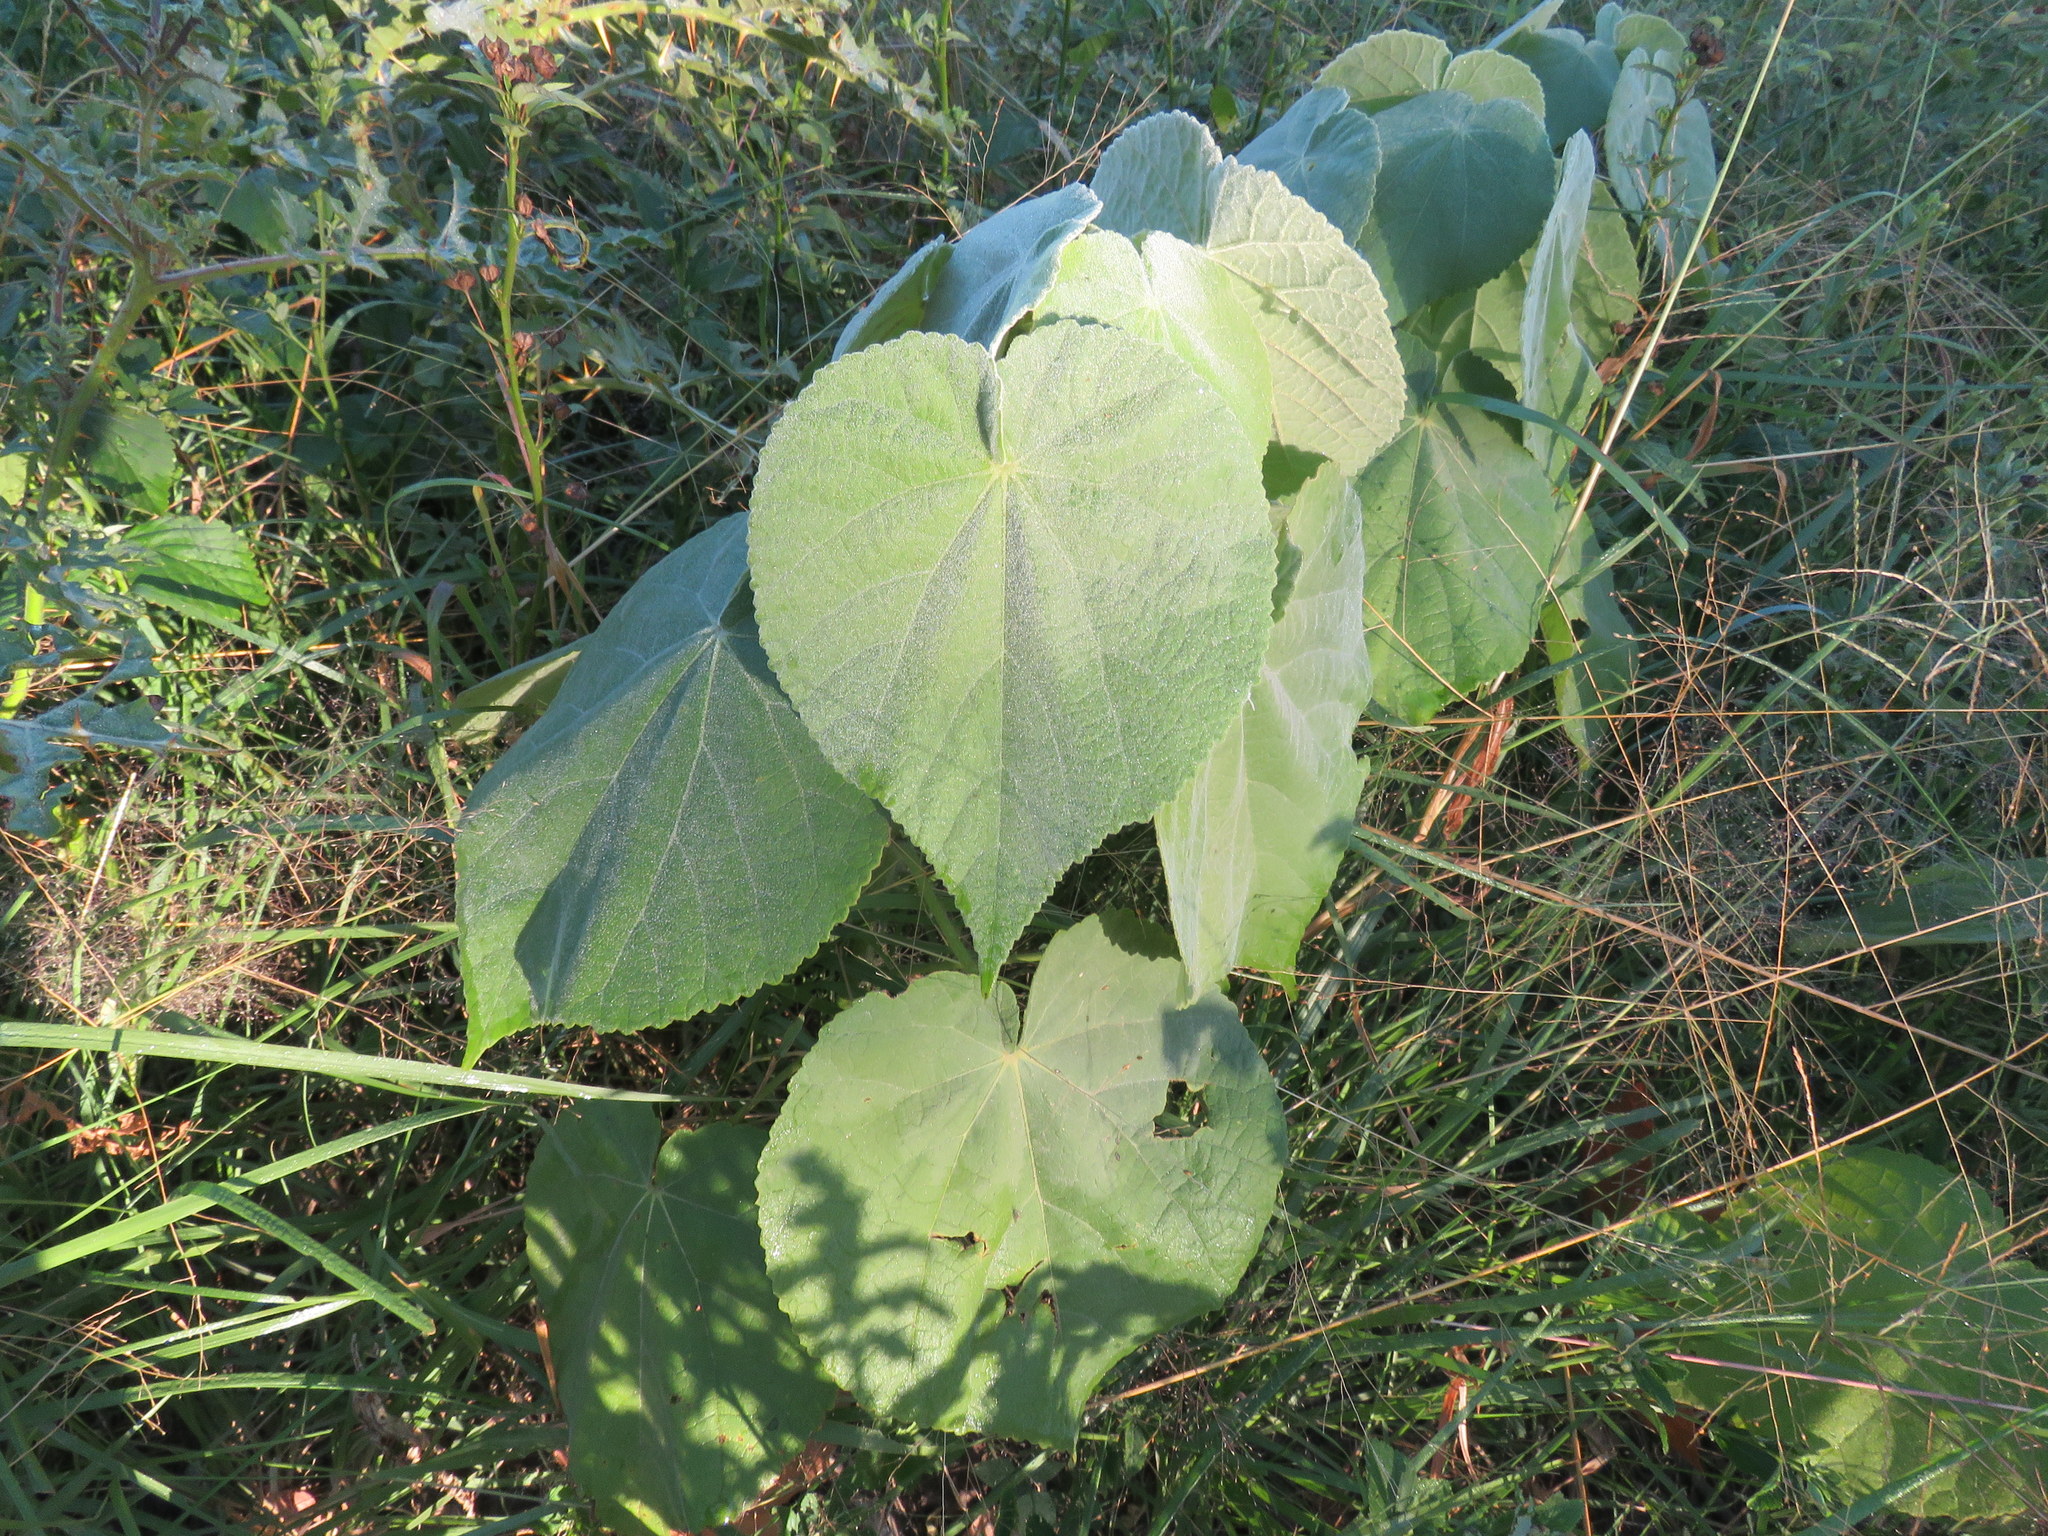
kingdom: Plantae
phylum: Tracheophyta
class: Magnoliopsida
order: Malvales
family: Malvaceae
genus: Abutilon
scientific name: Abutilon grandifolium
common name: Hairy abutilon
